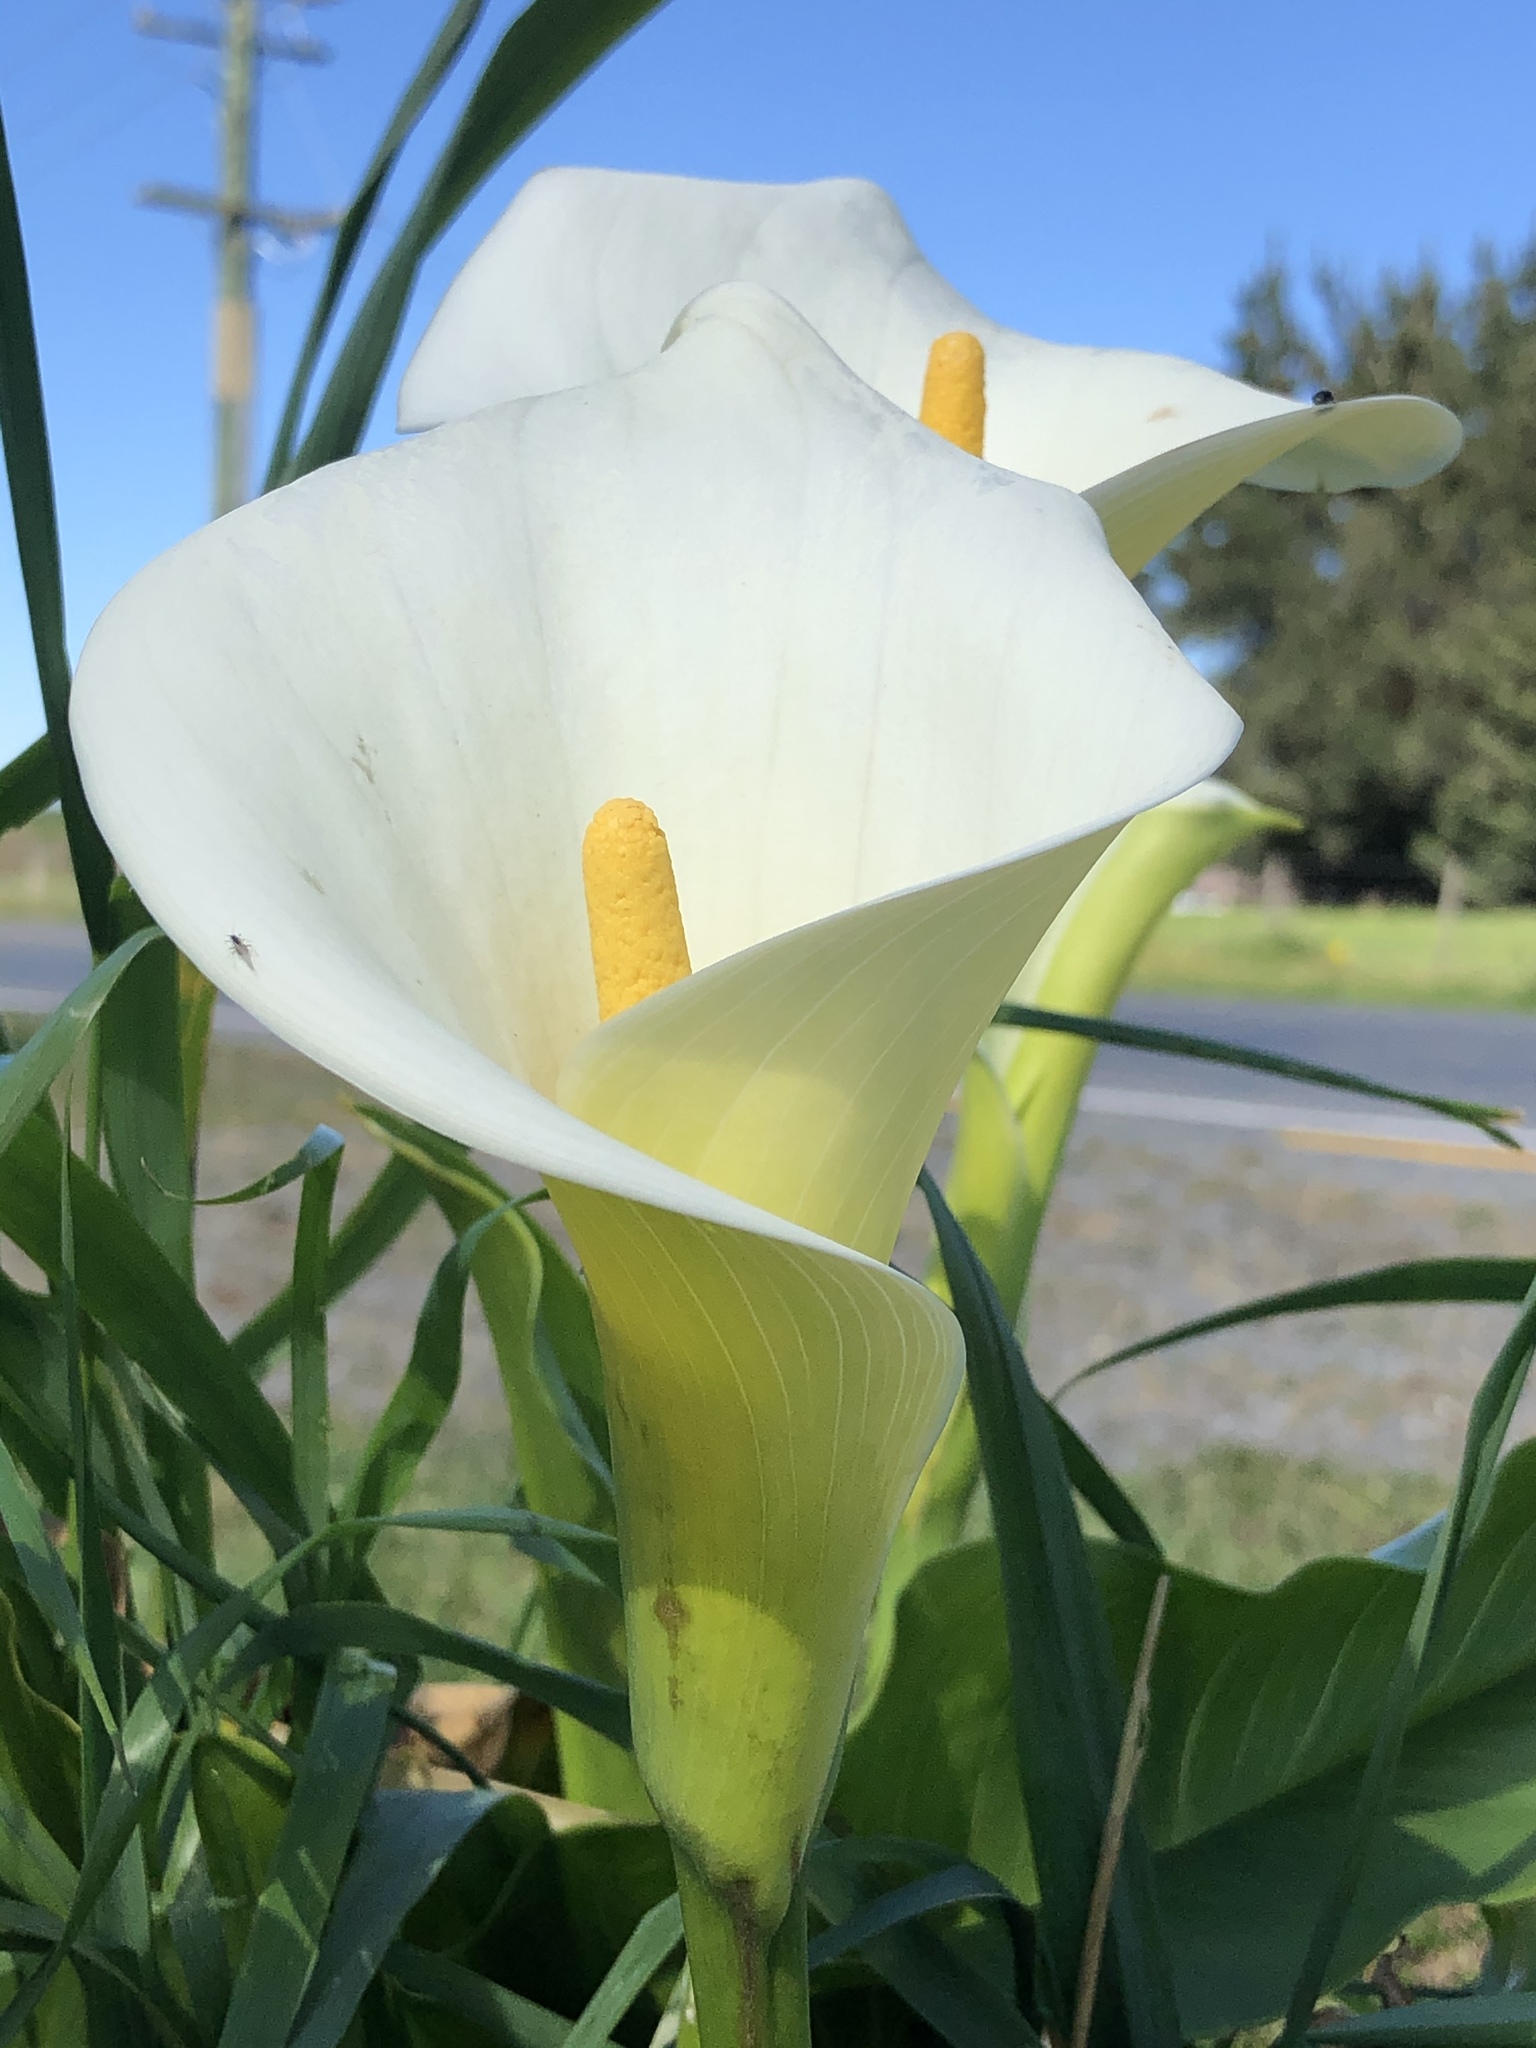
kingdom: Plantae
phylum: Tracheophyta
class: Liliopsida
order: Alismatales
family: Araceae
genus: Zantedeschia
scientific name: Zantedeschia aethiopica
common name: Altar-lily
